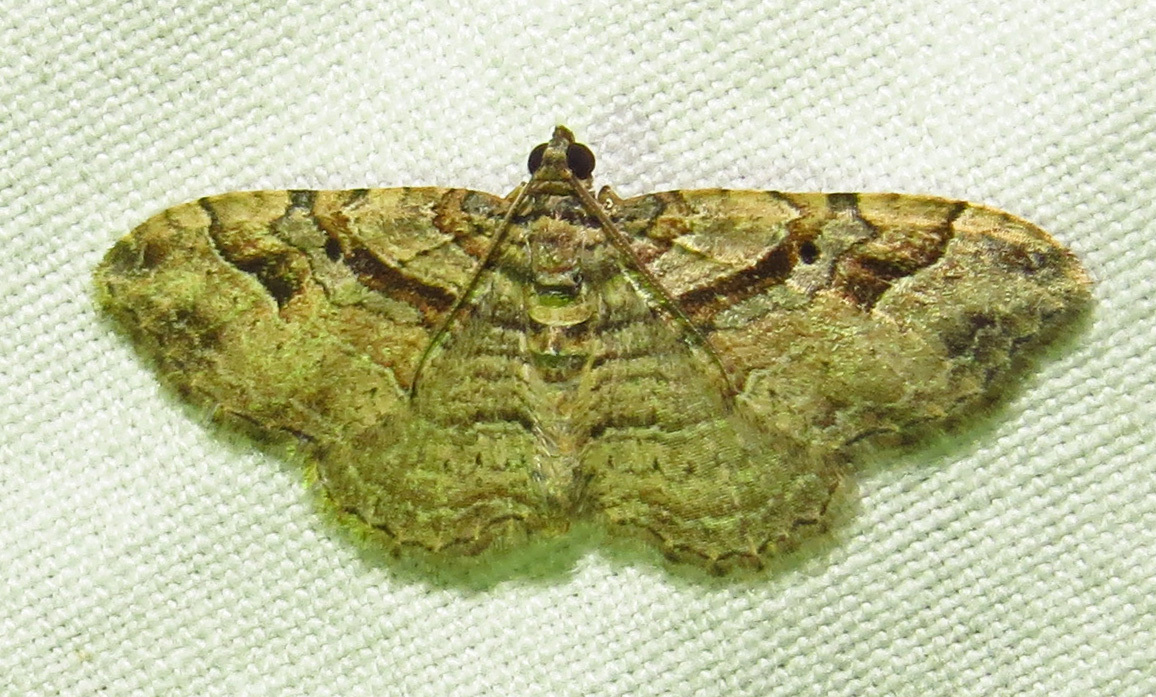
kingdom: Animalia
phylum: Arthropoda
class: Insecta
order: Lepidoptera
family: Geometridae
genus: Costaconvexa
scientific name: Costaconvexa centrostrigaria
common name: Bent-line carpet
